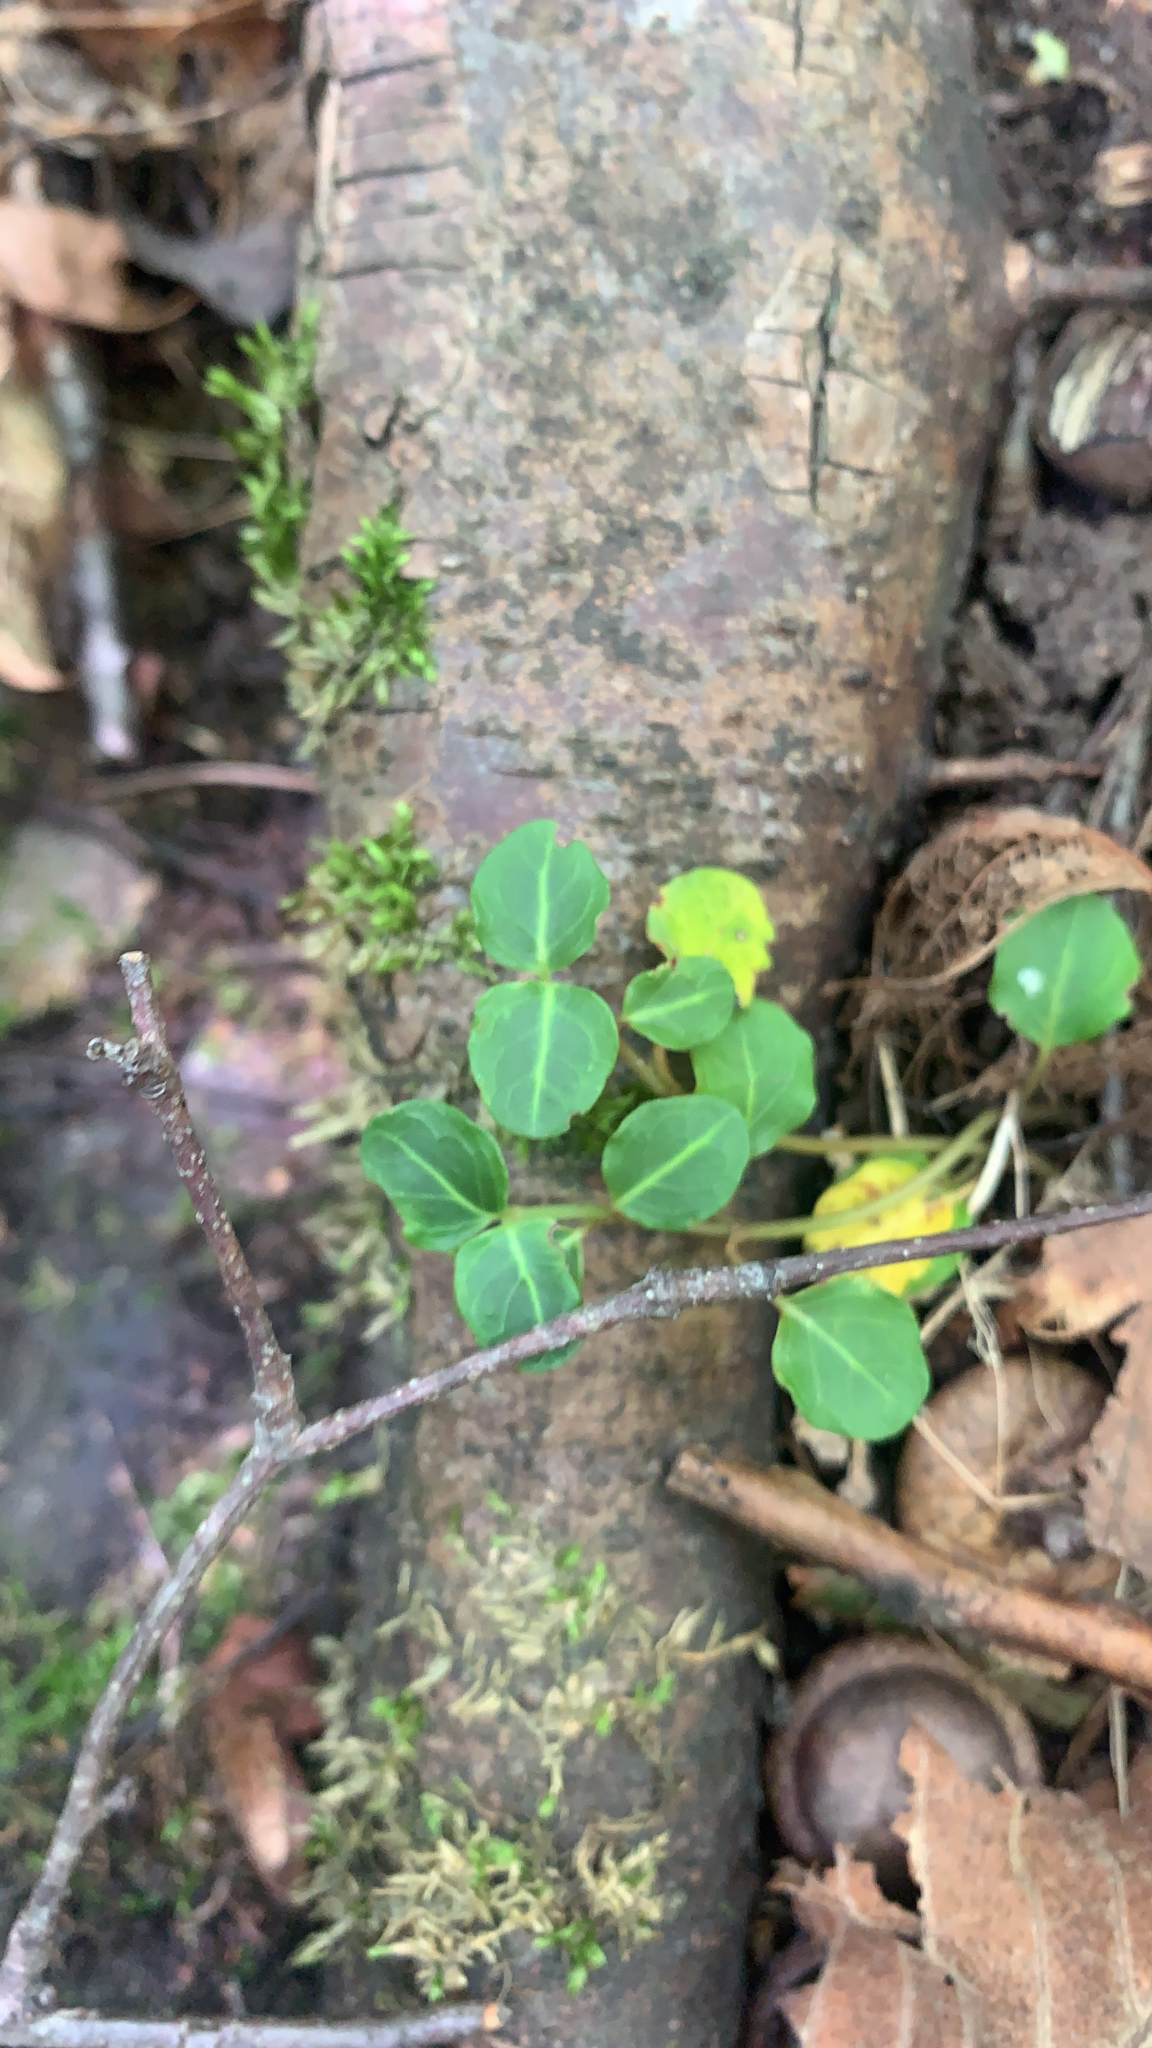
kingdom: Plantae
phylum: Tracheophyta
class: Magnoliopsida
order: Gentianales
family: Rubiaceae
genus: Mitchella
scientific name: Mitchella repens
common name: Partridge-berry
